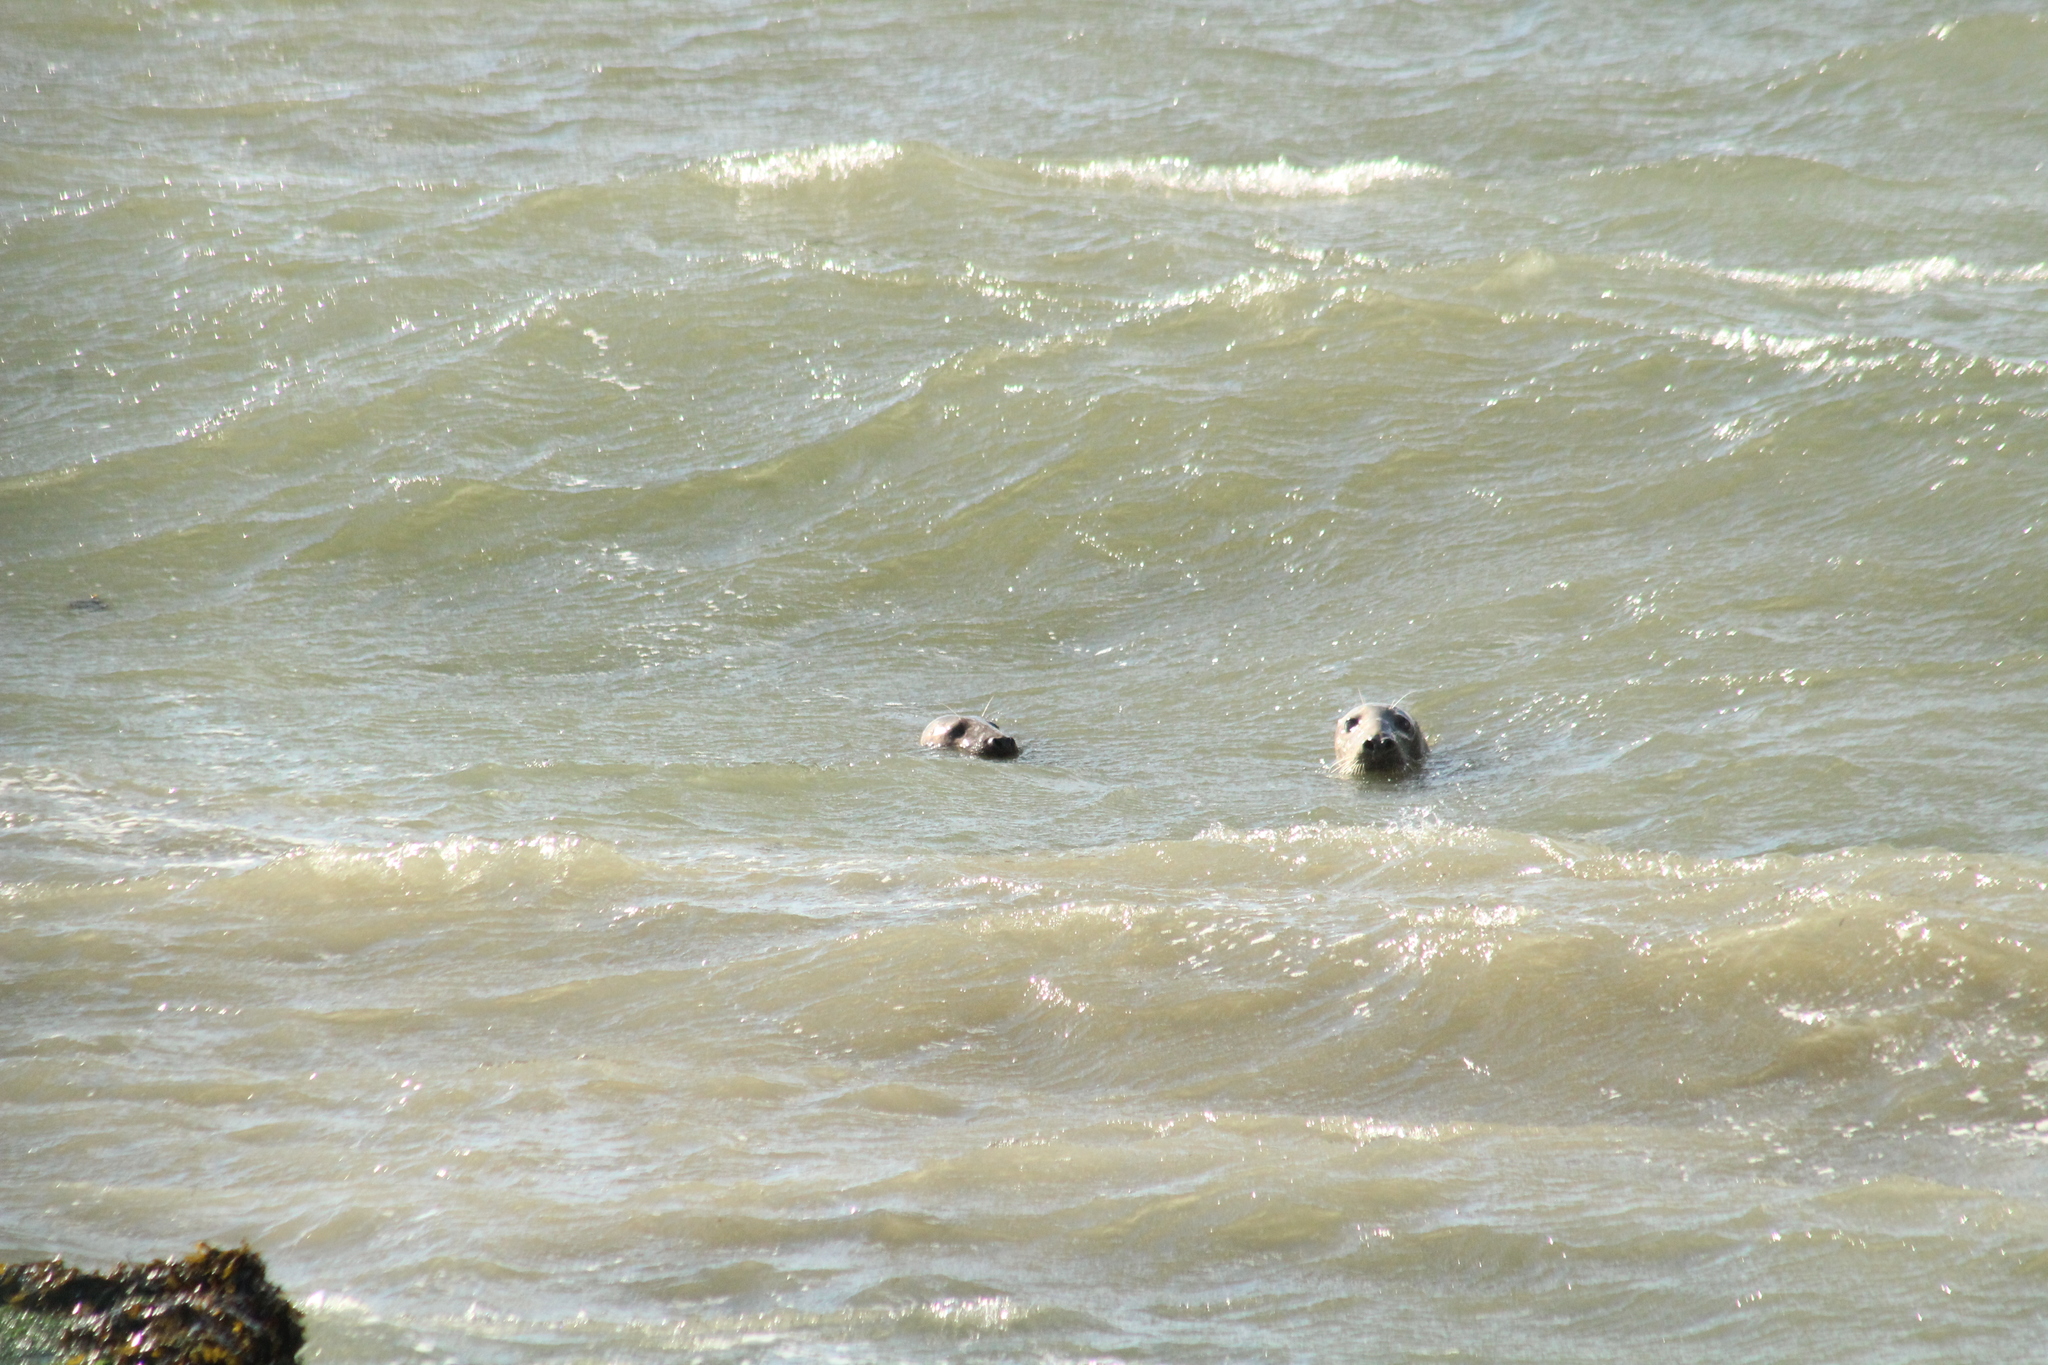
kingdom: Animalia
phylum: Chordata
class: Mammalia
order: Carnivora
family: Phocidae
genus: Halichoerus
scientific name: Halichoerus grypus
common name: Grey seal
